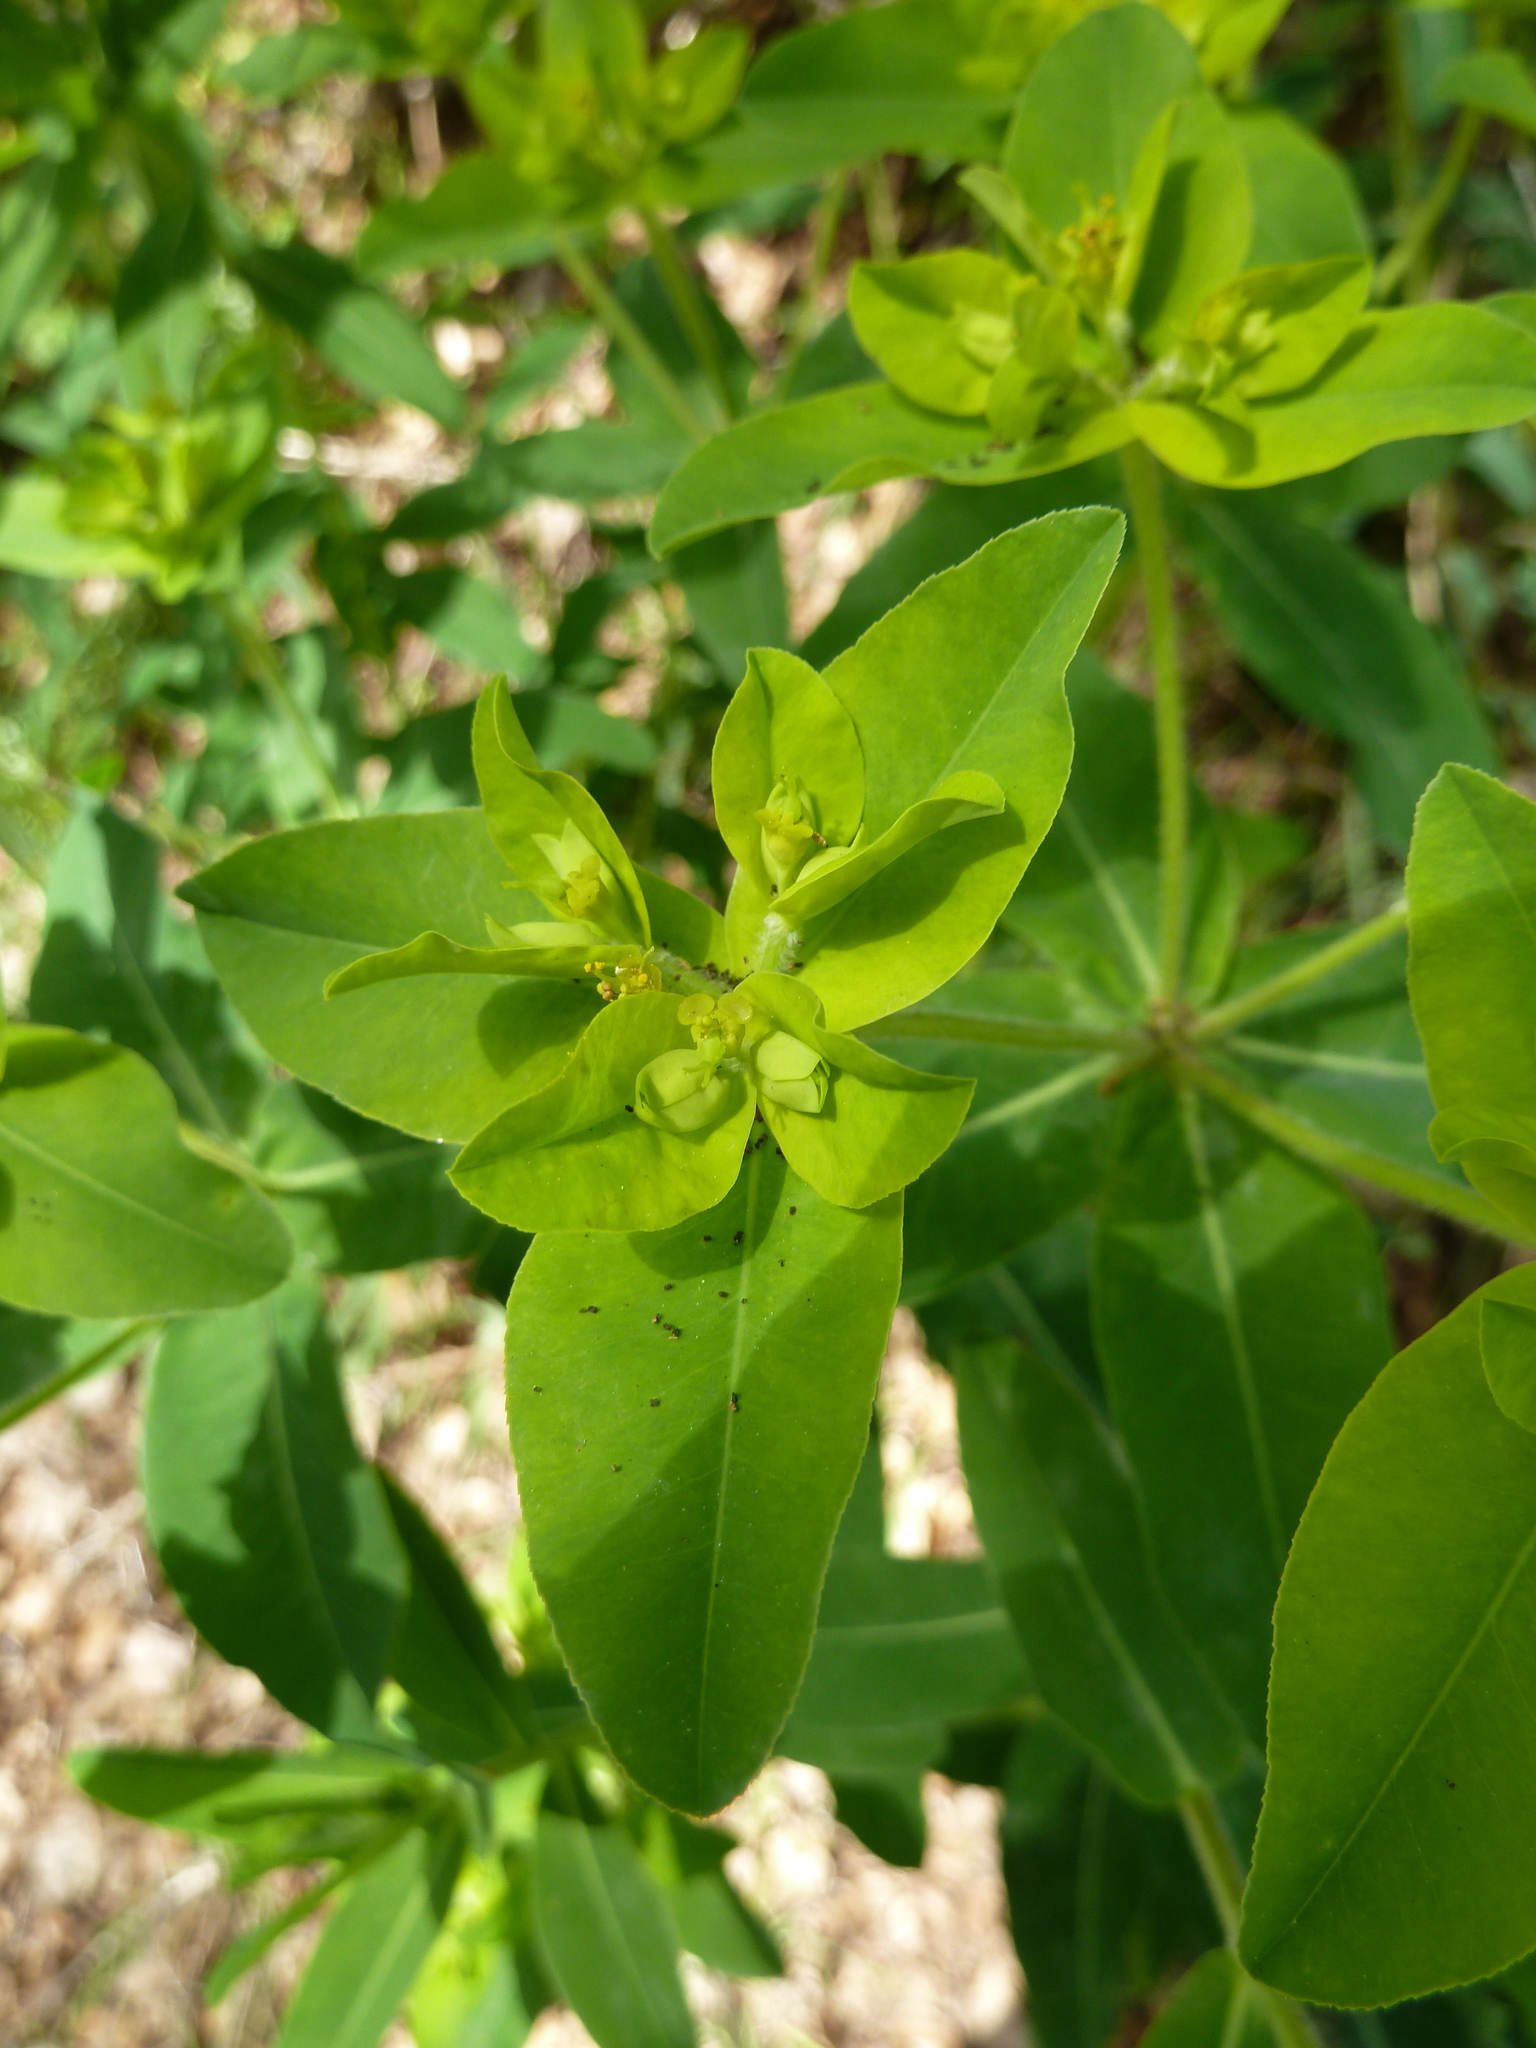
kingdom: Plantae
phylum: Tracheophyta
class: Magnoliopsida
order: Malpighiales
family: Euphorbiaceae
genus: Euphorbia
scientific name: Euphorbia oblongata
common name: Balkan spurge
